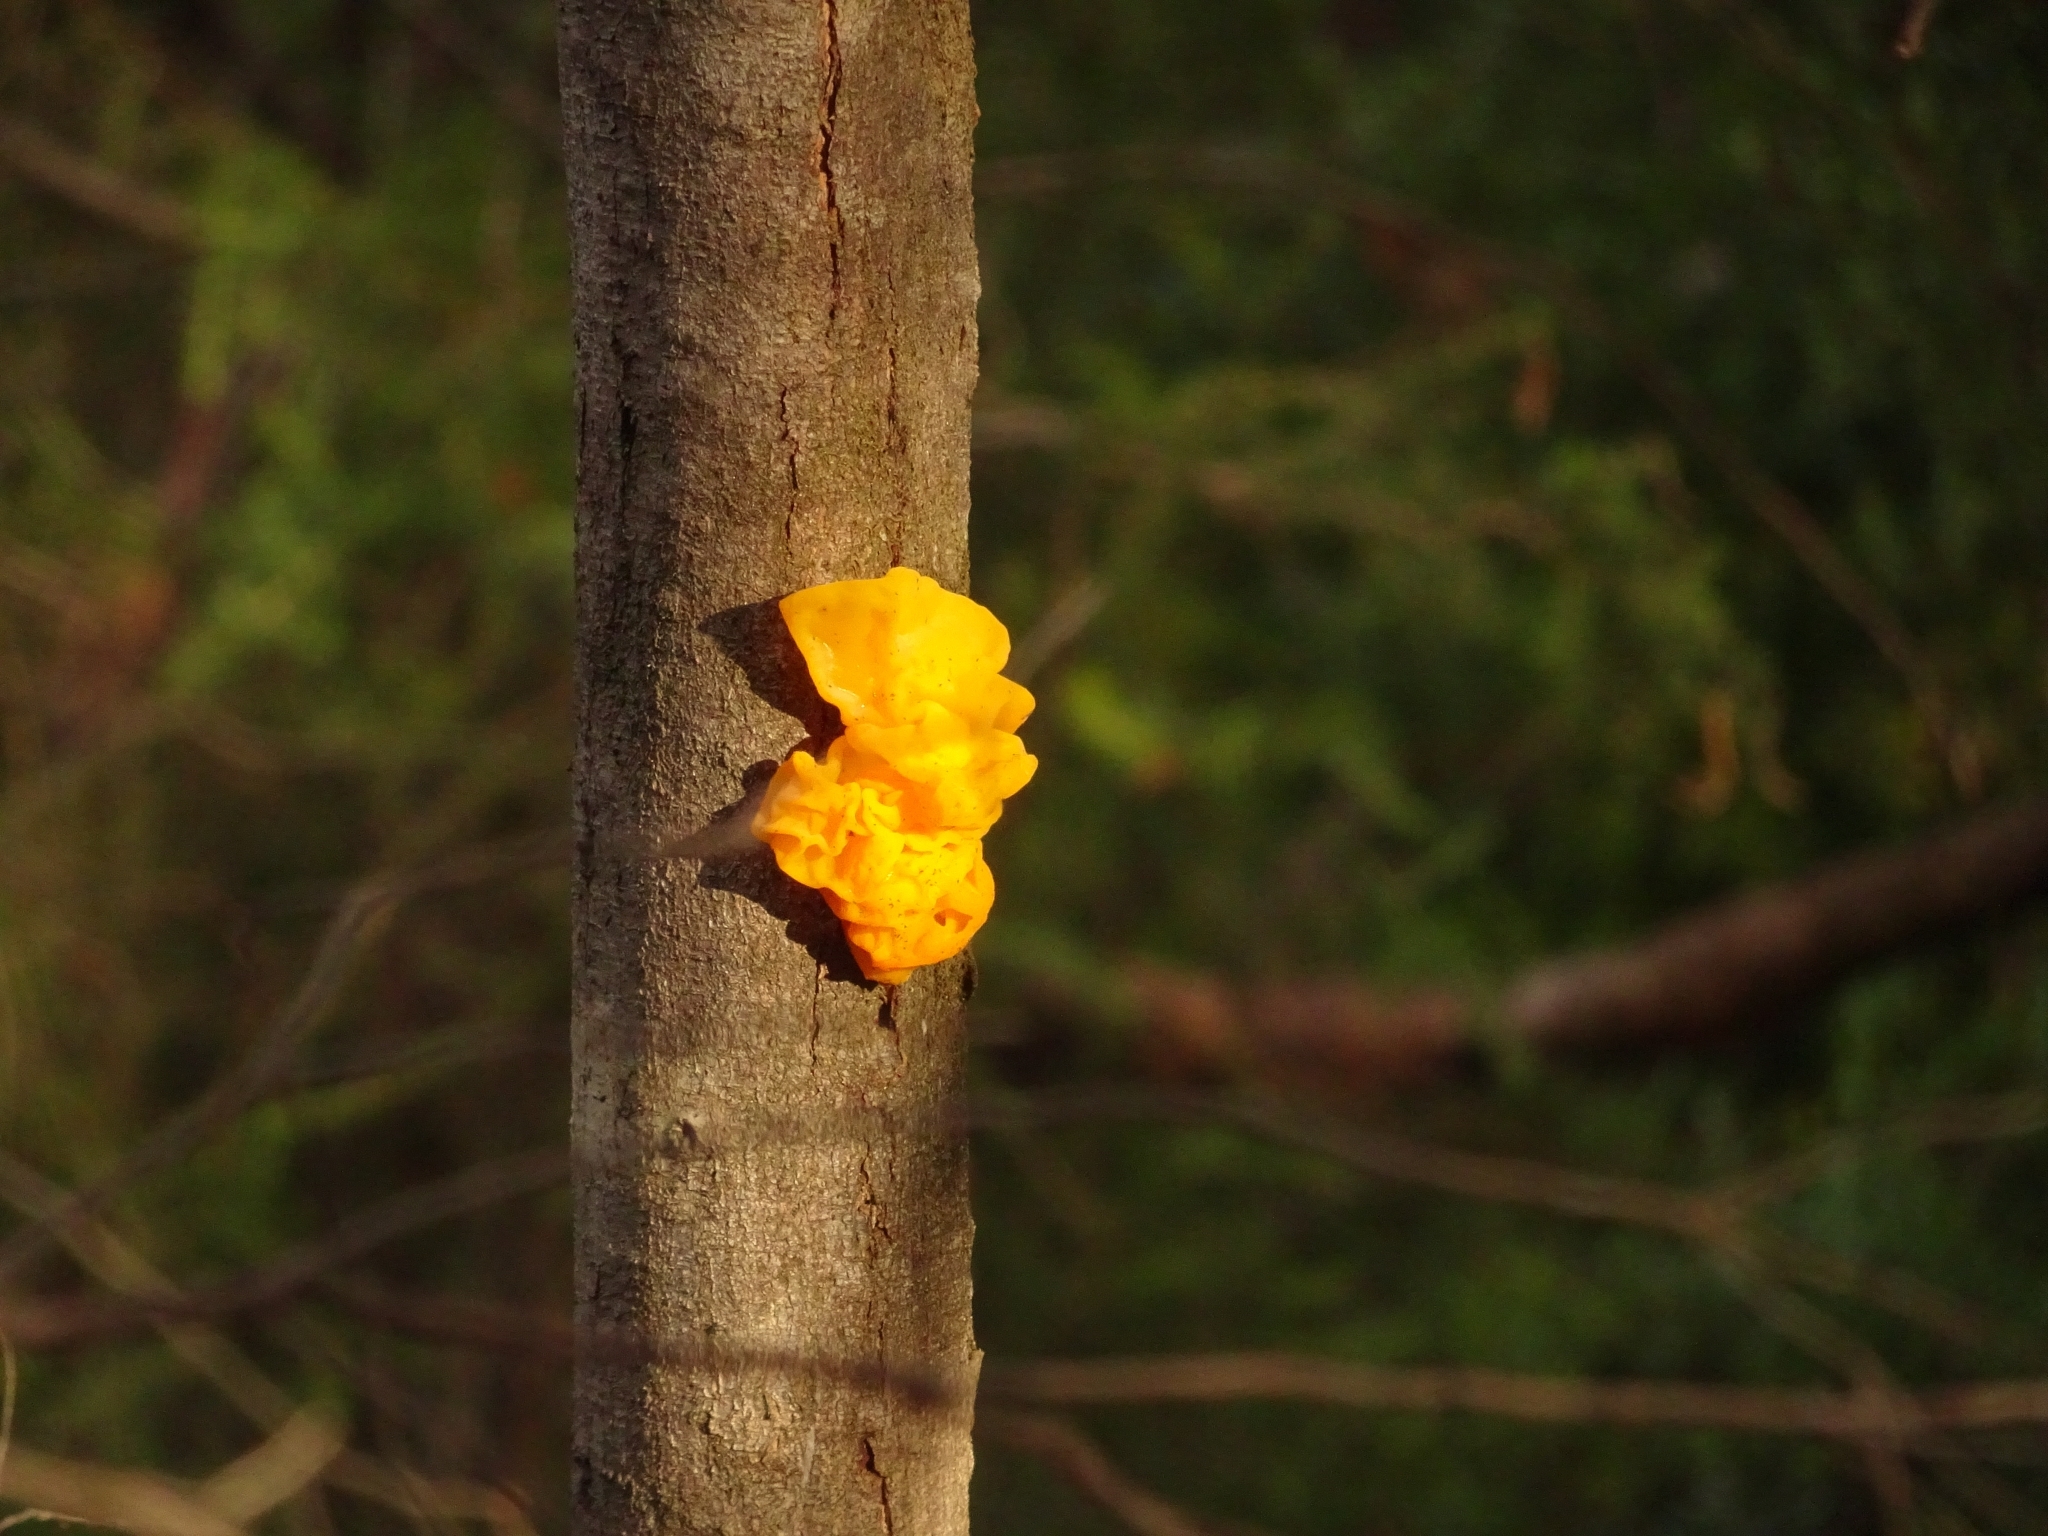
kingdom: Fungi
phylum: Basidiomycota
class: Tremellomycetes
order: Tremellales
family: Tremellaceae
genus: Tremella
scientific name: Tremella mesenterica
